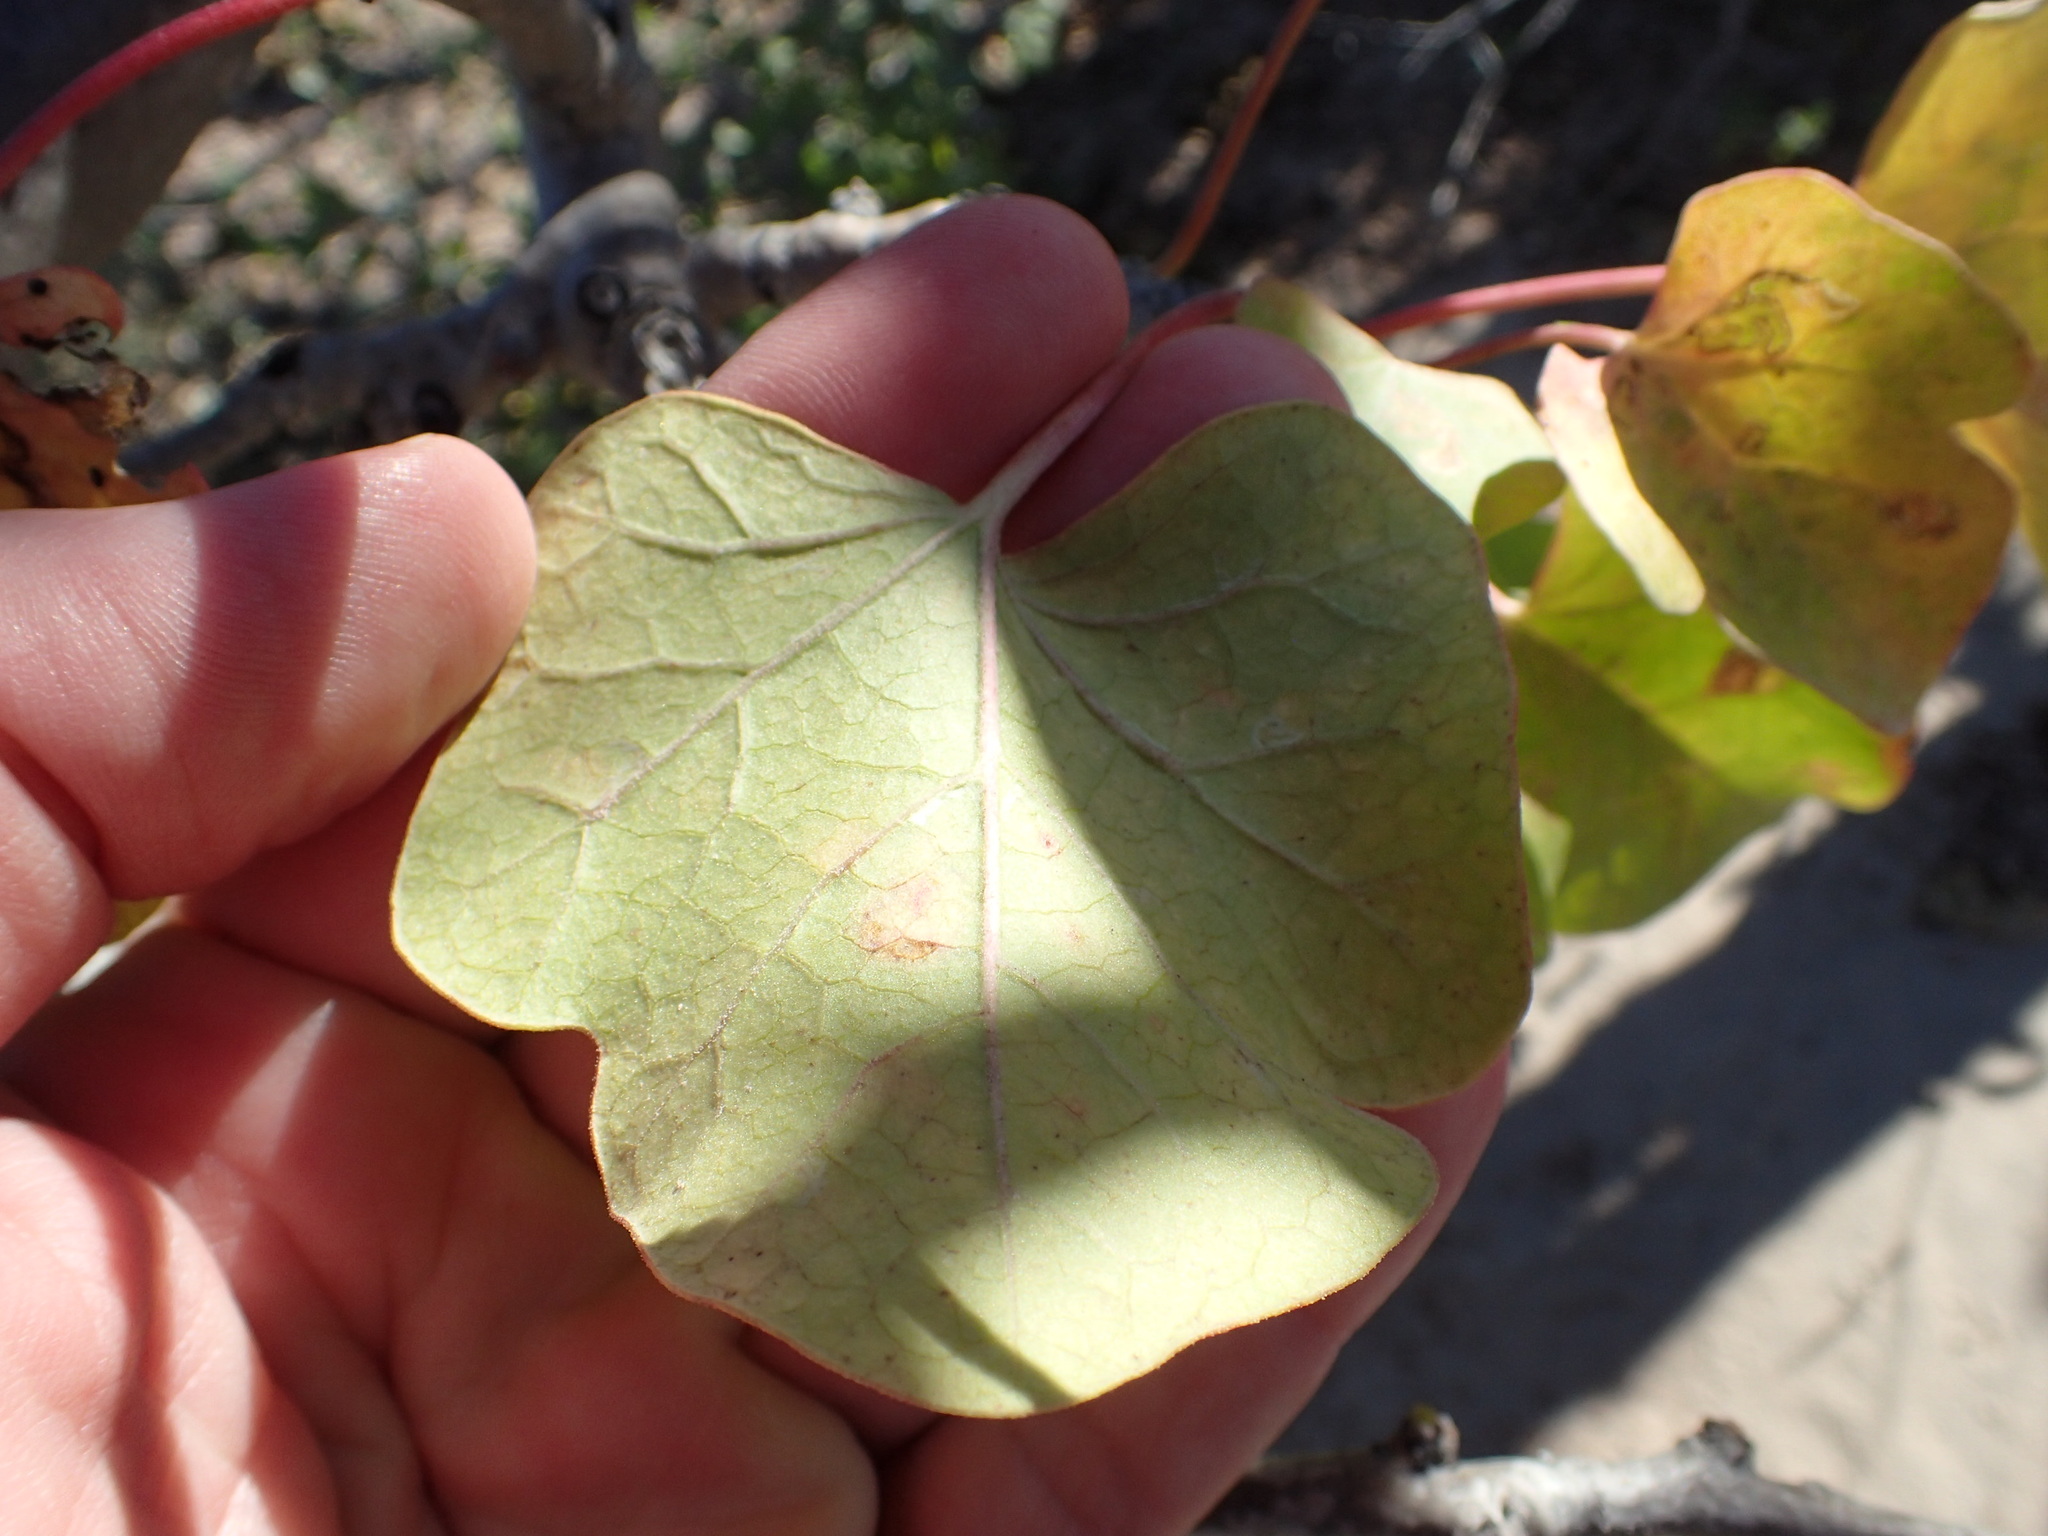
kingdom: Plantae
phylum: Tracheophyta
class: Magnoliopsida
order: Malpighiales
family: Euphorbiaceae
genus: Jatropha
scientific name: Jatropha cinerea
